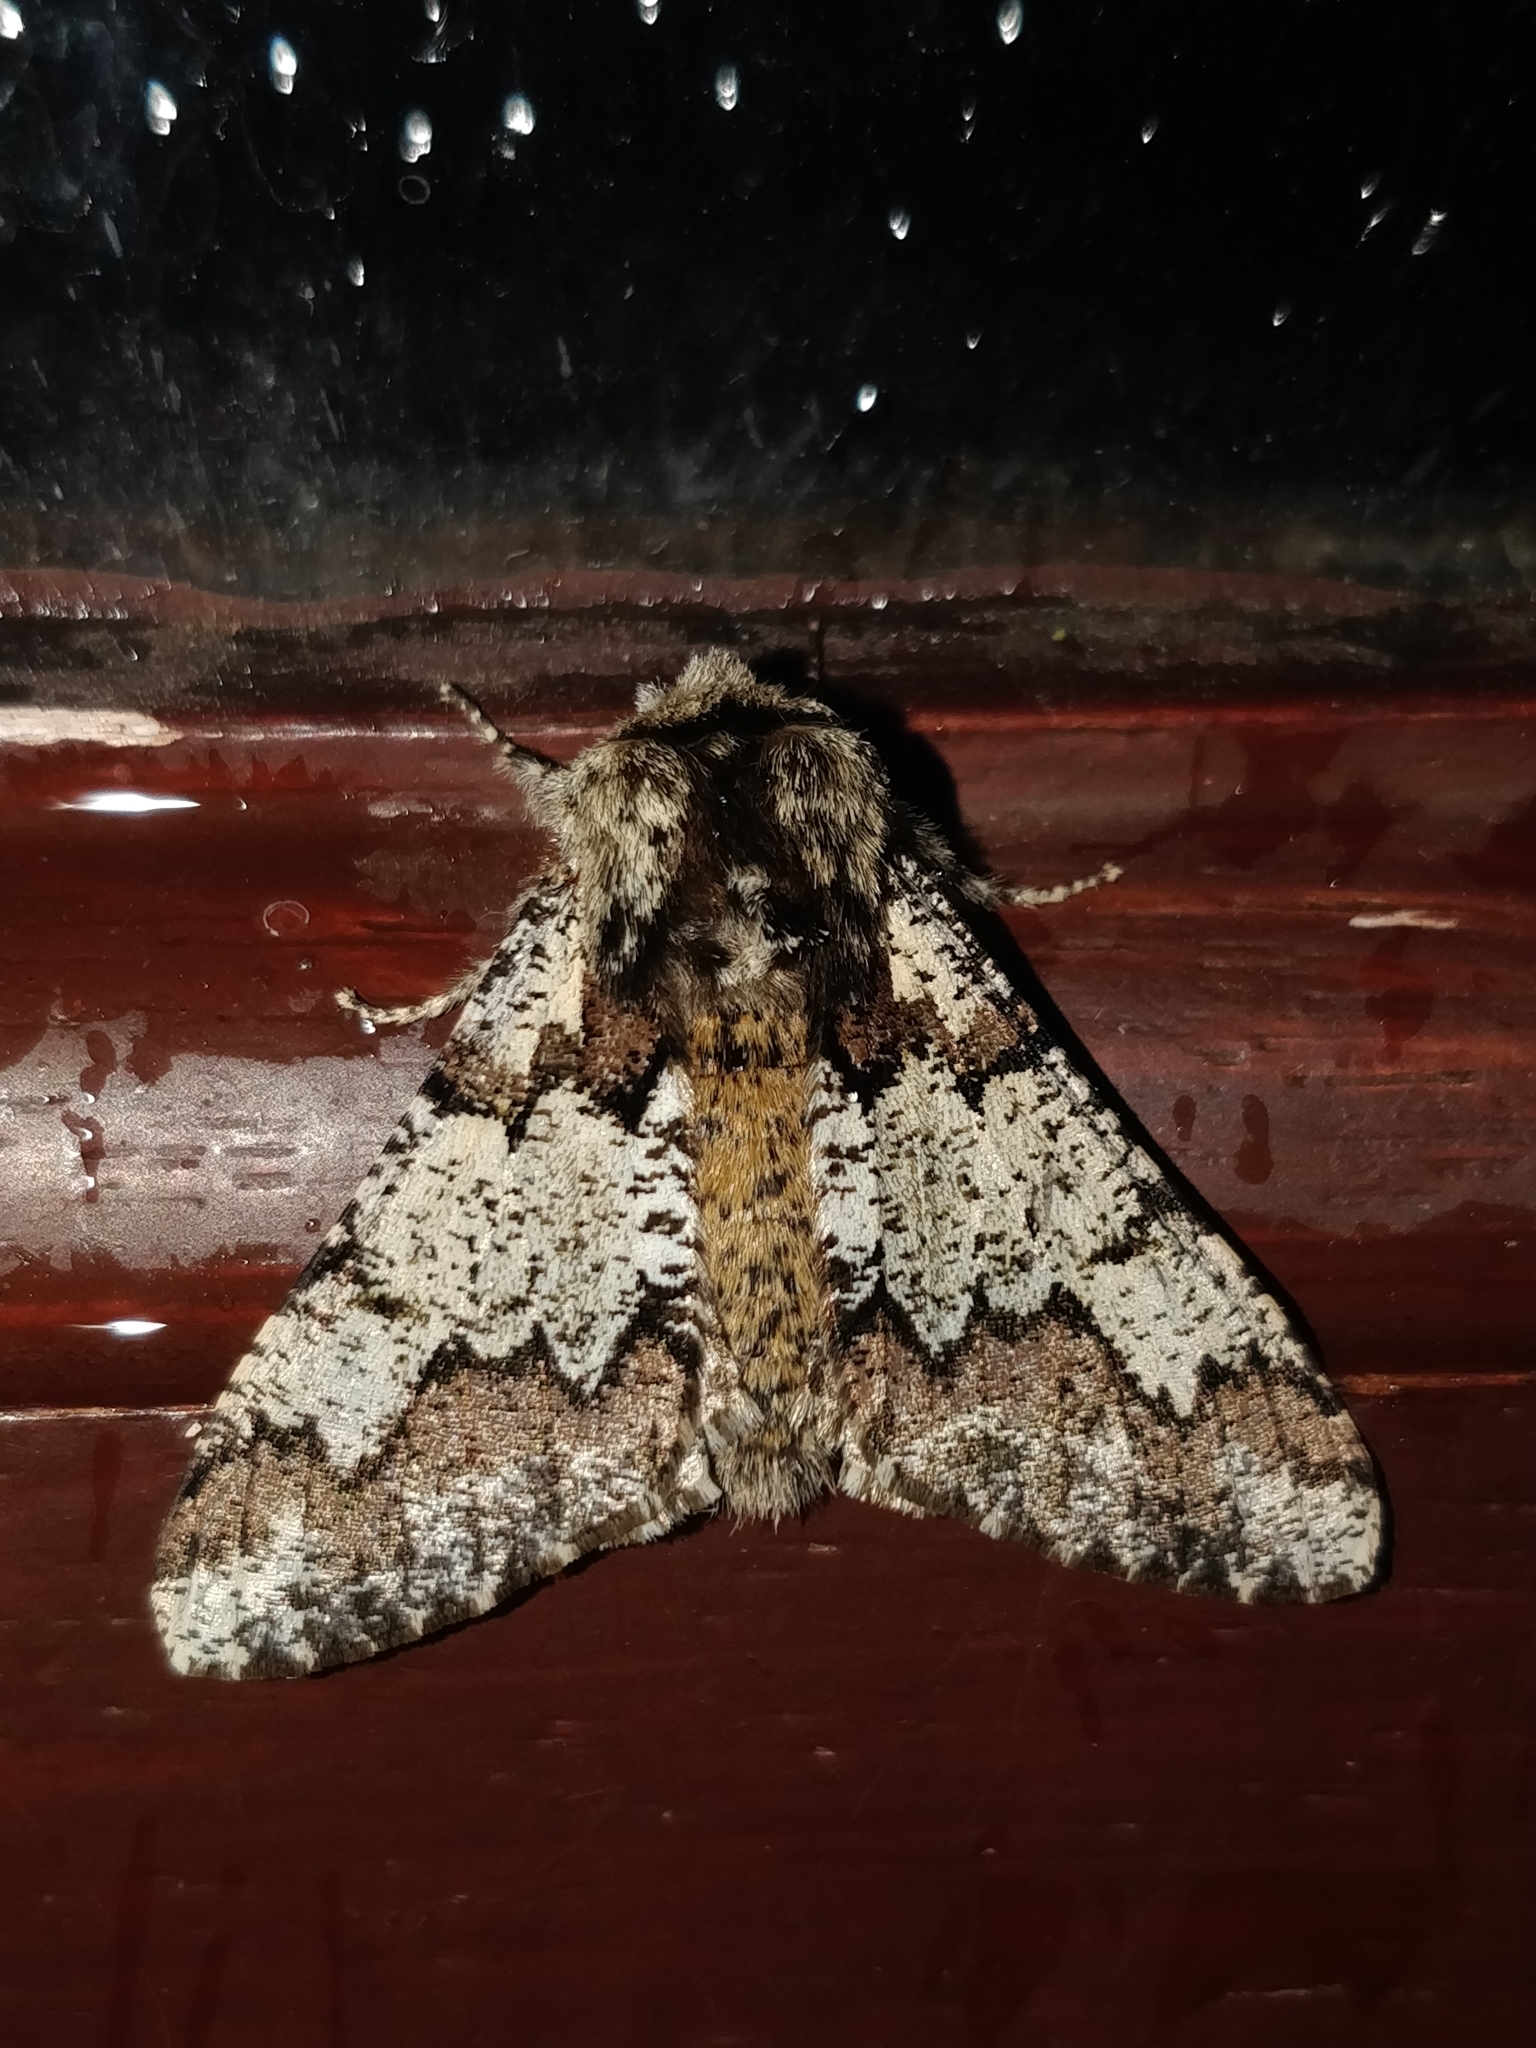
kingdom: Animalia
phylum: Arthropoda
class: Insecta
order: Lepidoptera
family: Geometridae
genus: Biston
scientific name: Biston strataria
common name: Oak beauty
